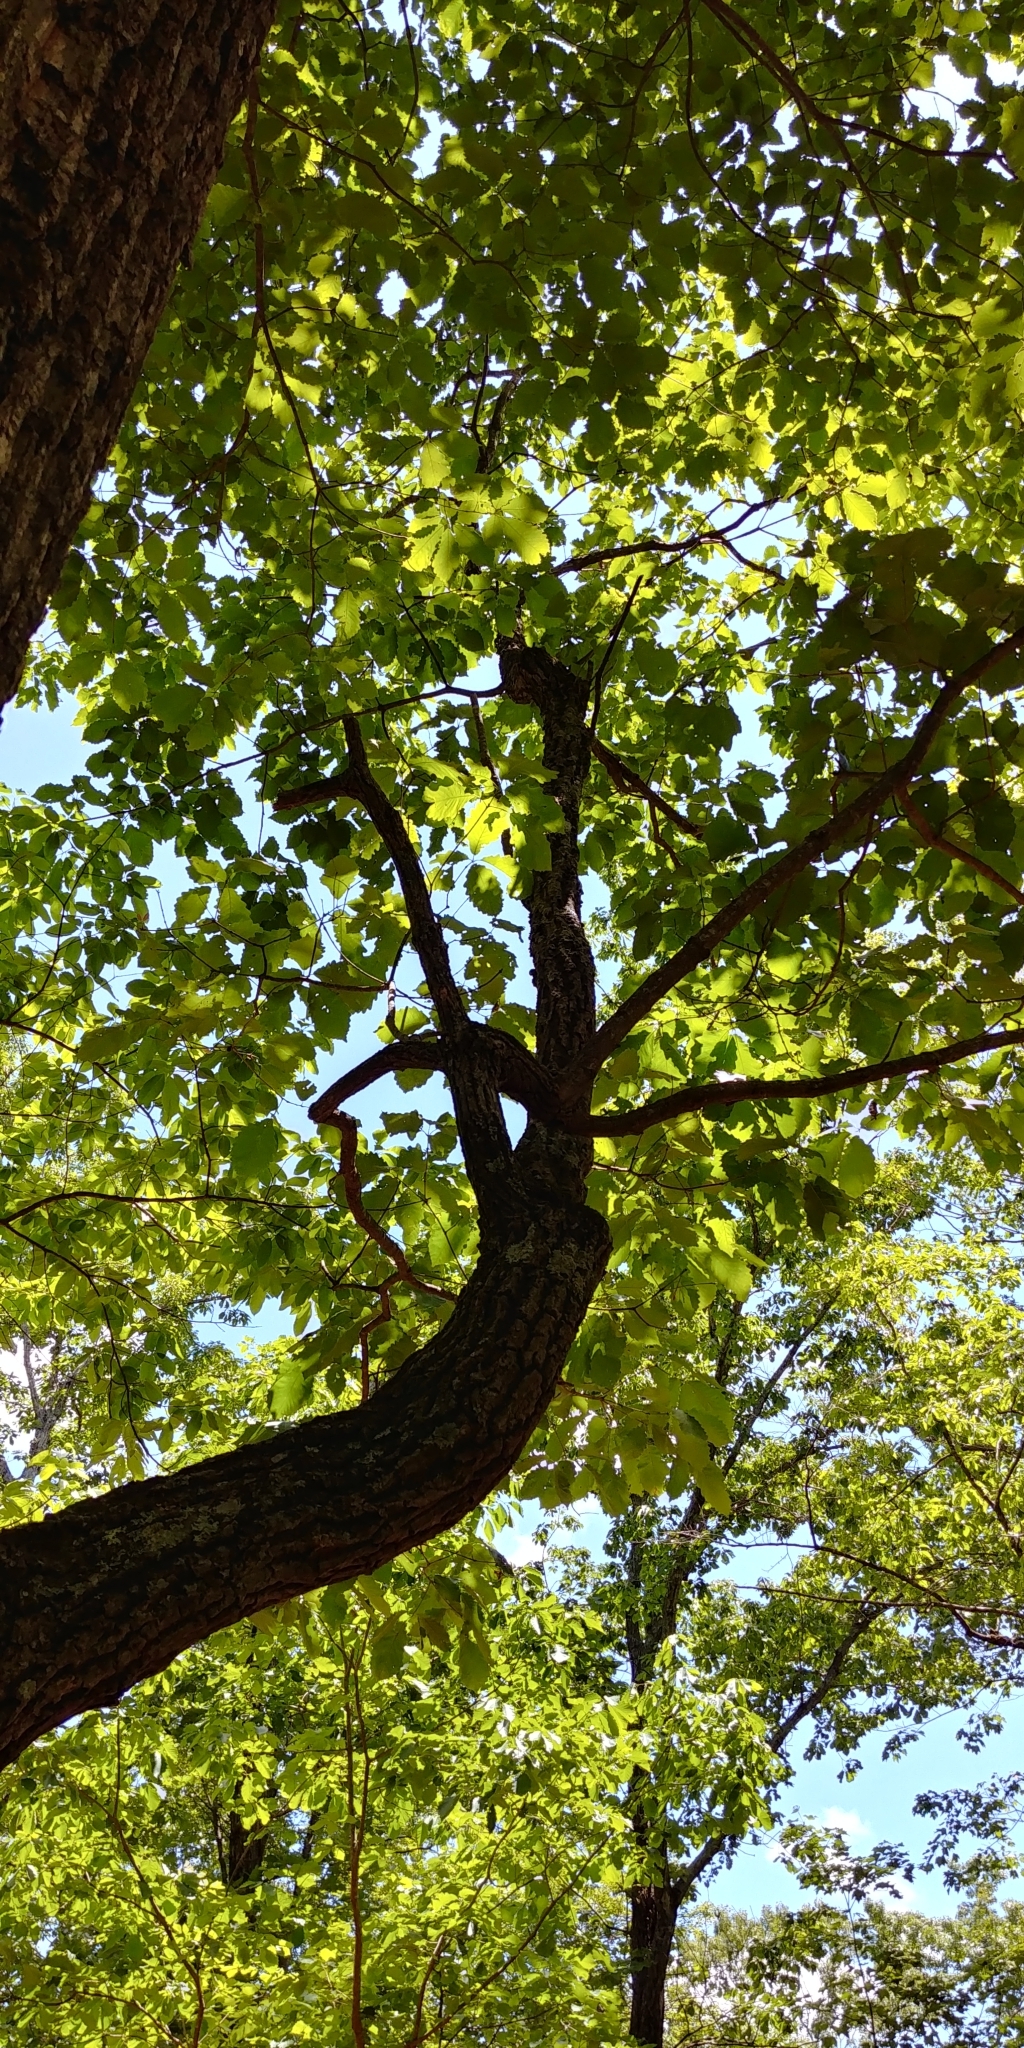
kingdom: Plantae
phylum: Tracheophyta
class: Magnoliopsida
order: Fagales
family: Fagaceae
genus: Quercus
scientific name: Quercus montana
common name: Chestnut oak
